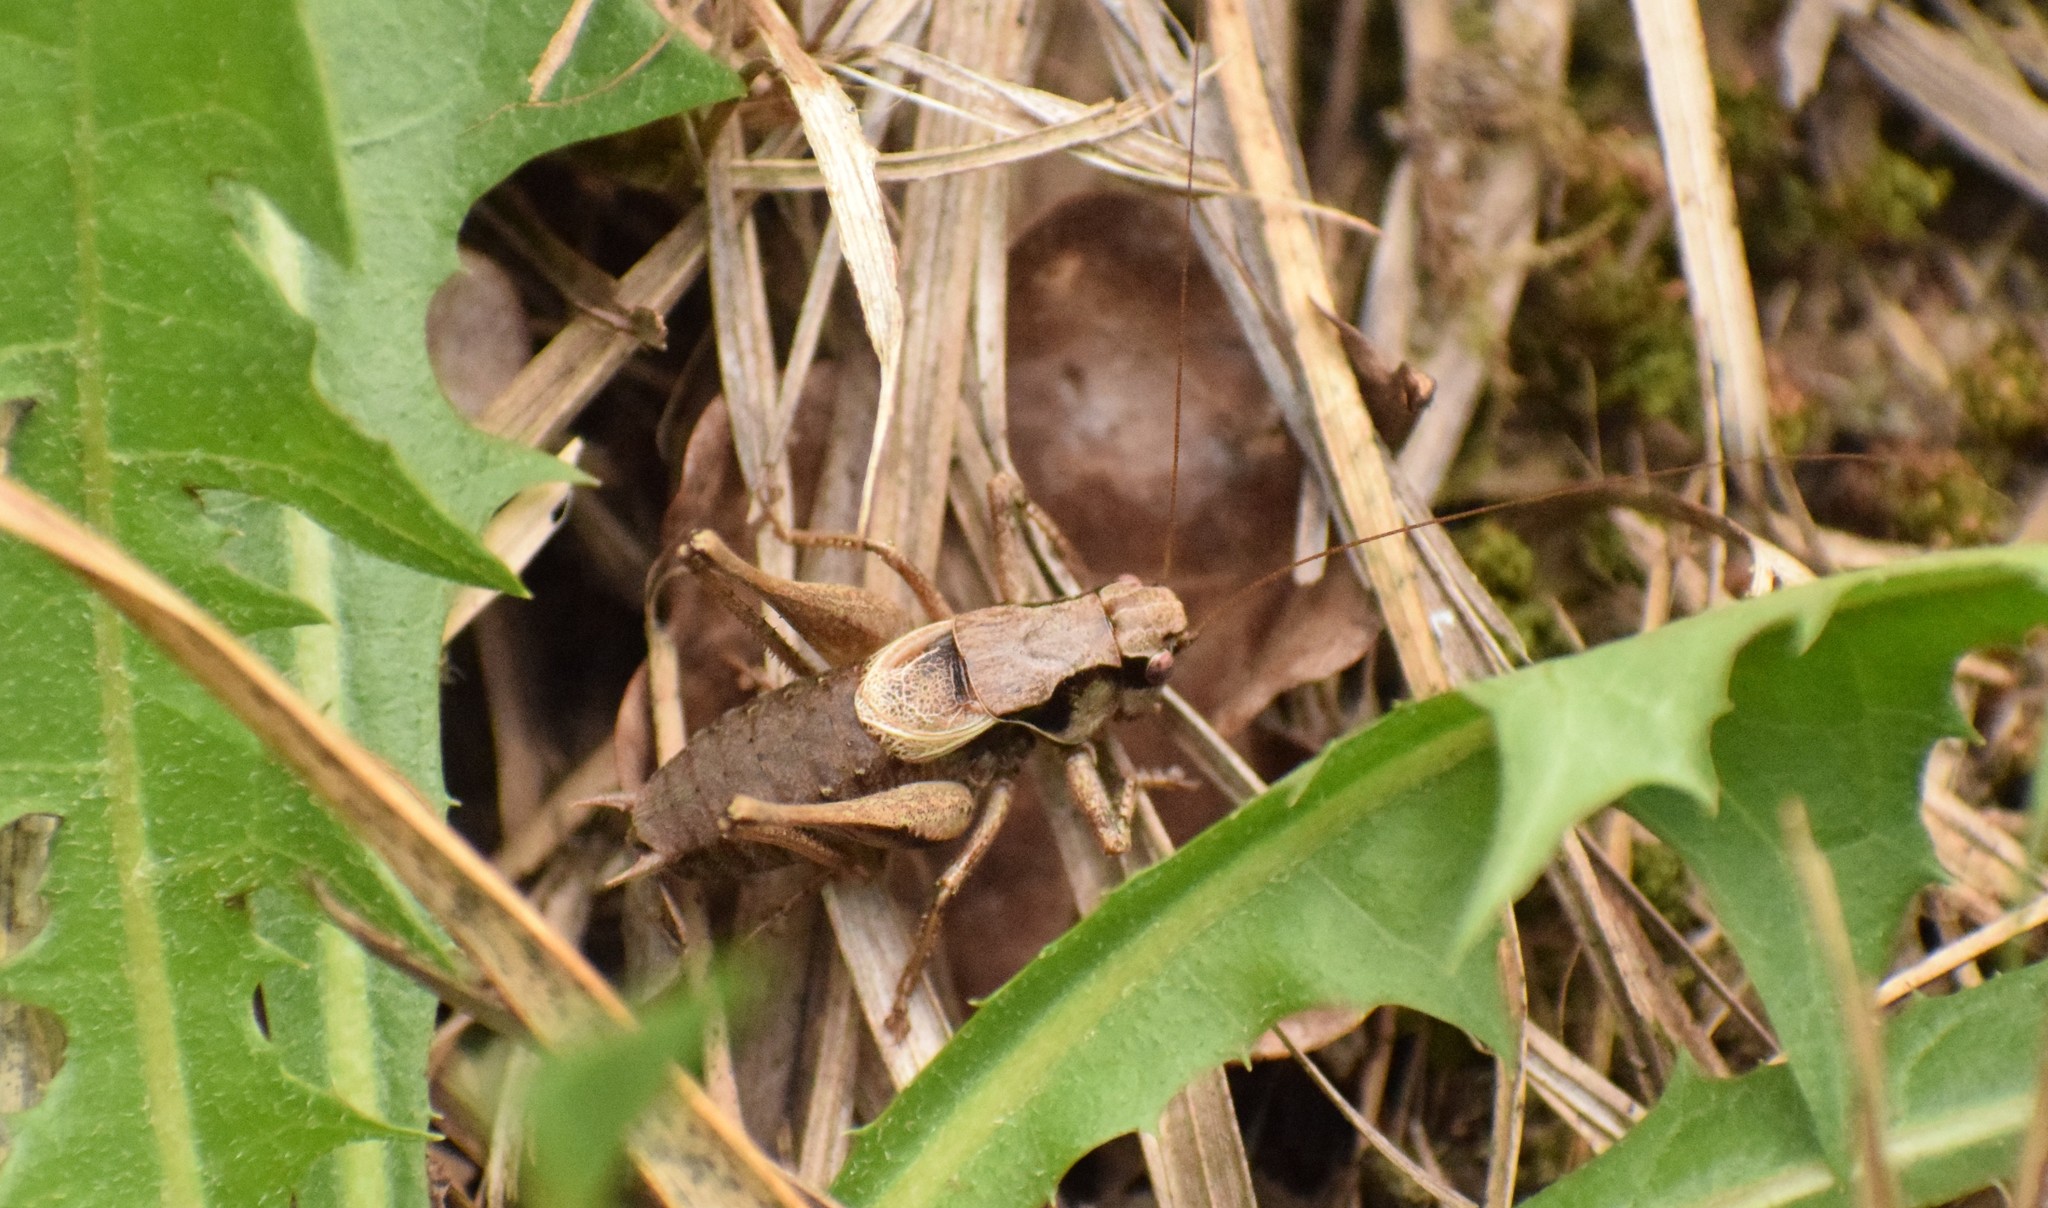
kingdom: Animalia
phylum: Arthropoda
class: Insecta
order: Orthoptera
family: Tettigoniidae
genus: Pholidoptera
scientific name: Pholidoptera griseoaptera
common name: Dark bush-cricket
